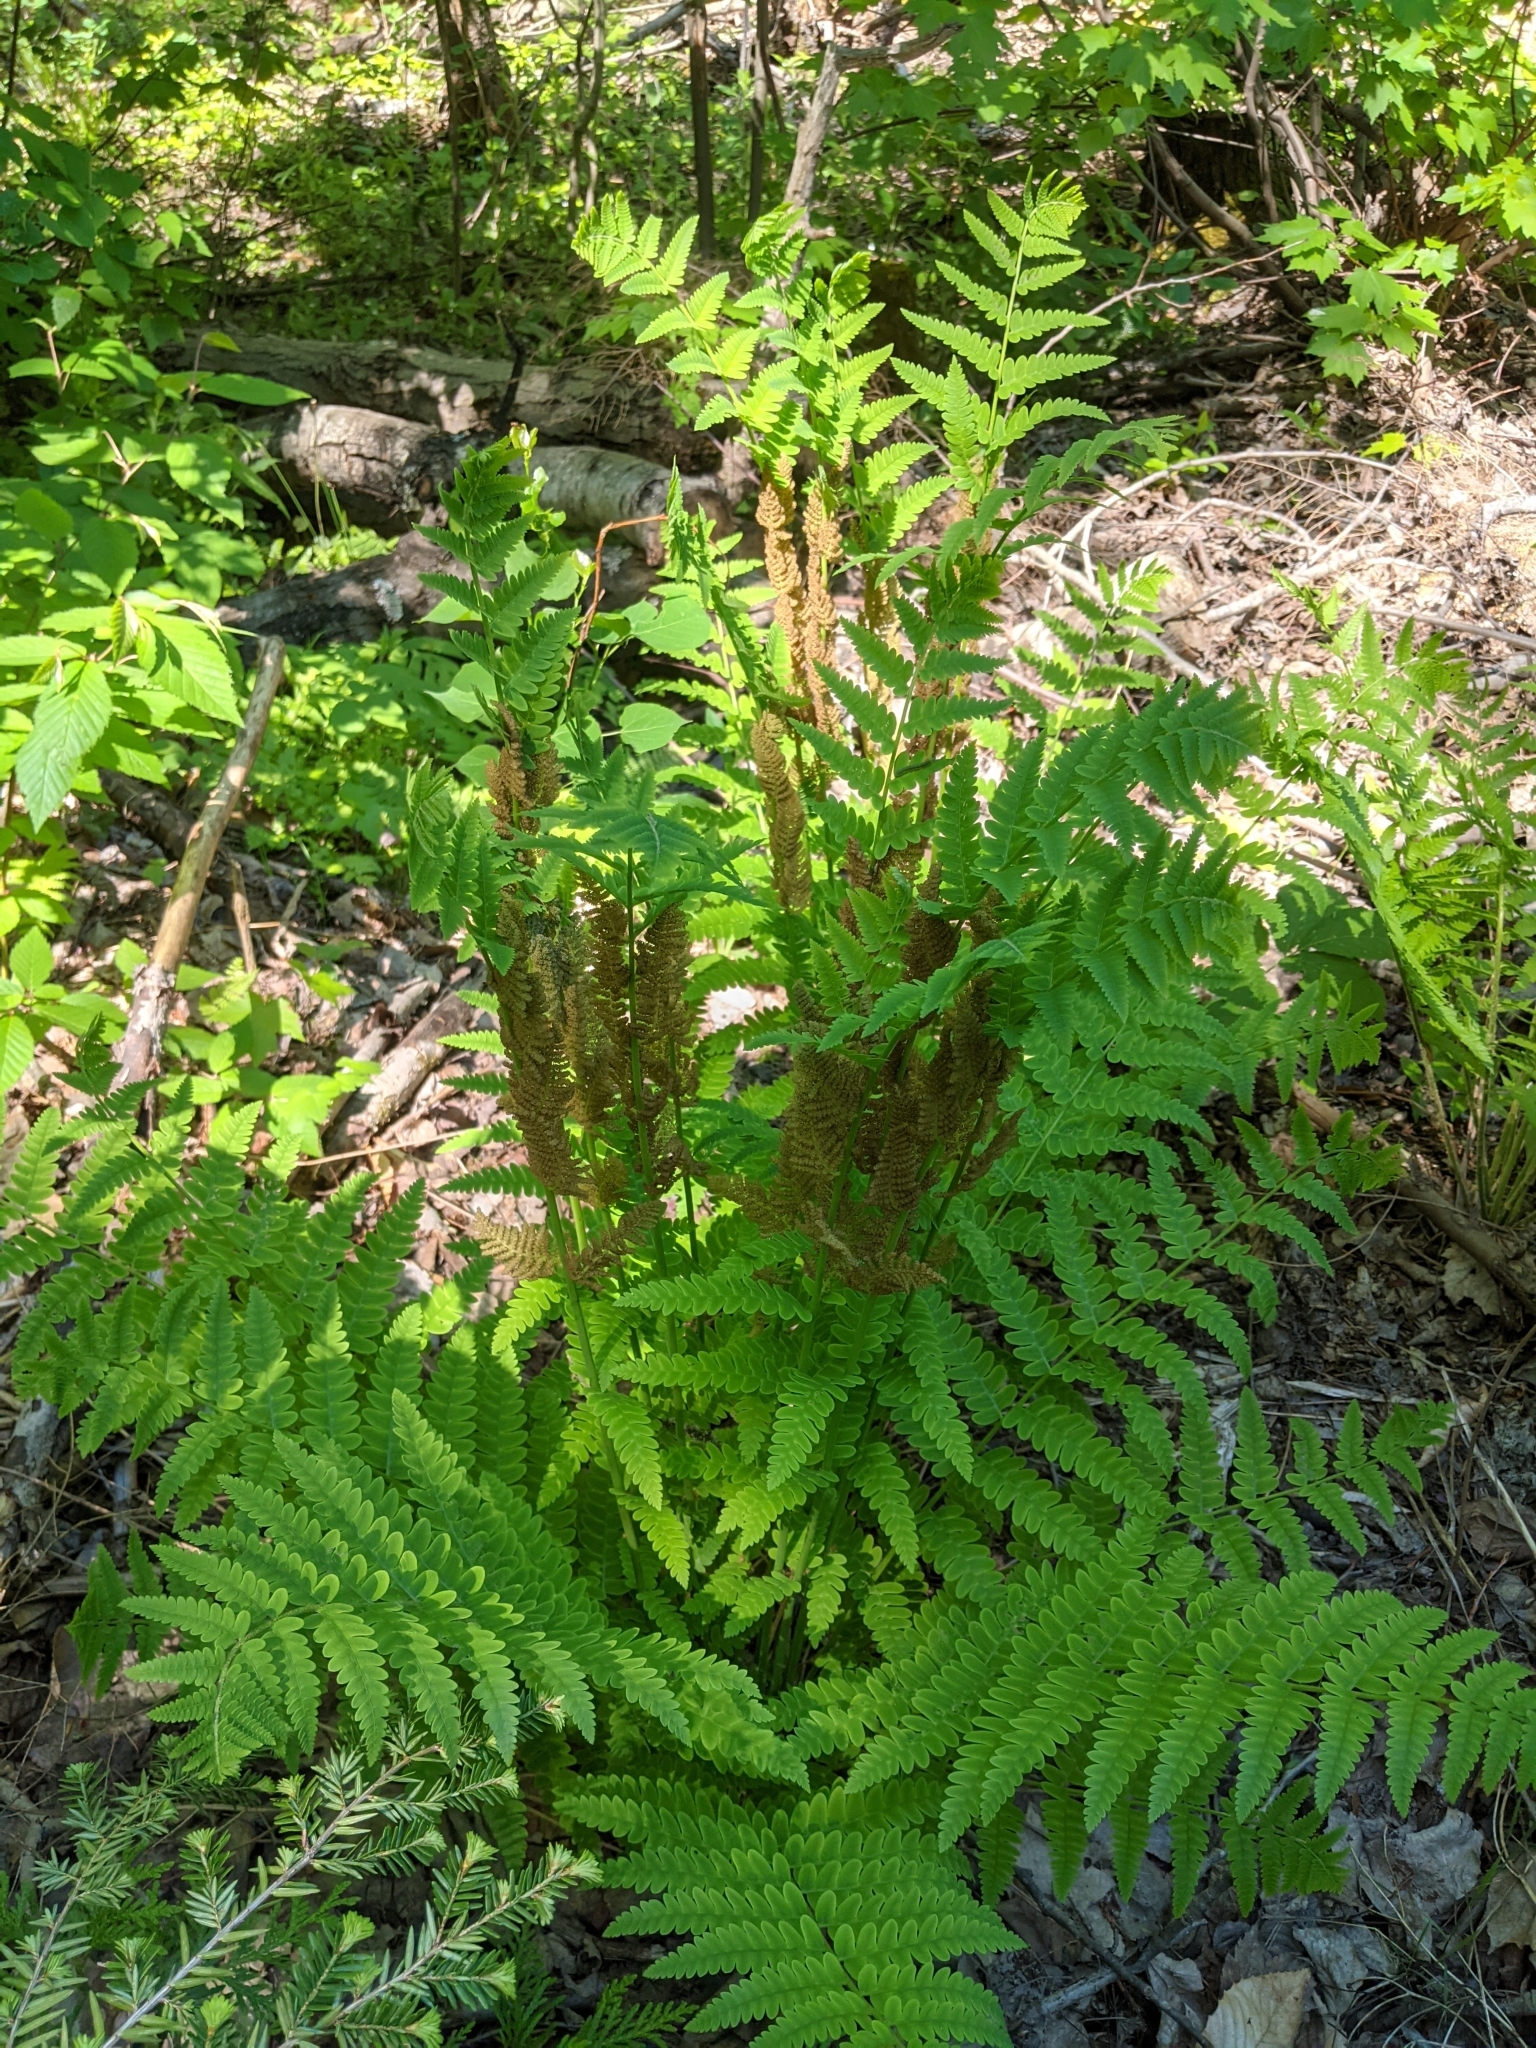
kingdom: Plantae
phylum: Tracheophyta
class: Polypodiopsida
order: Osmundales
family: Osmundaceae
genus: Claytosmunda
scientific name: Claytosmunda claytoniana
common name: Clayton's fern
